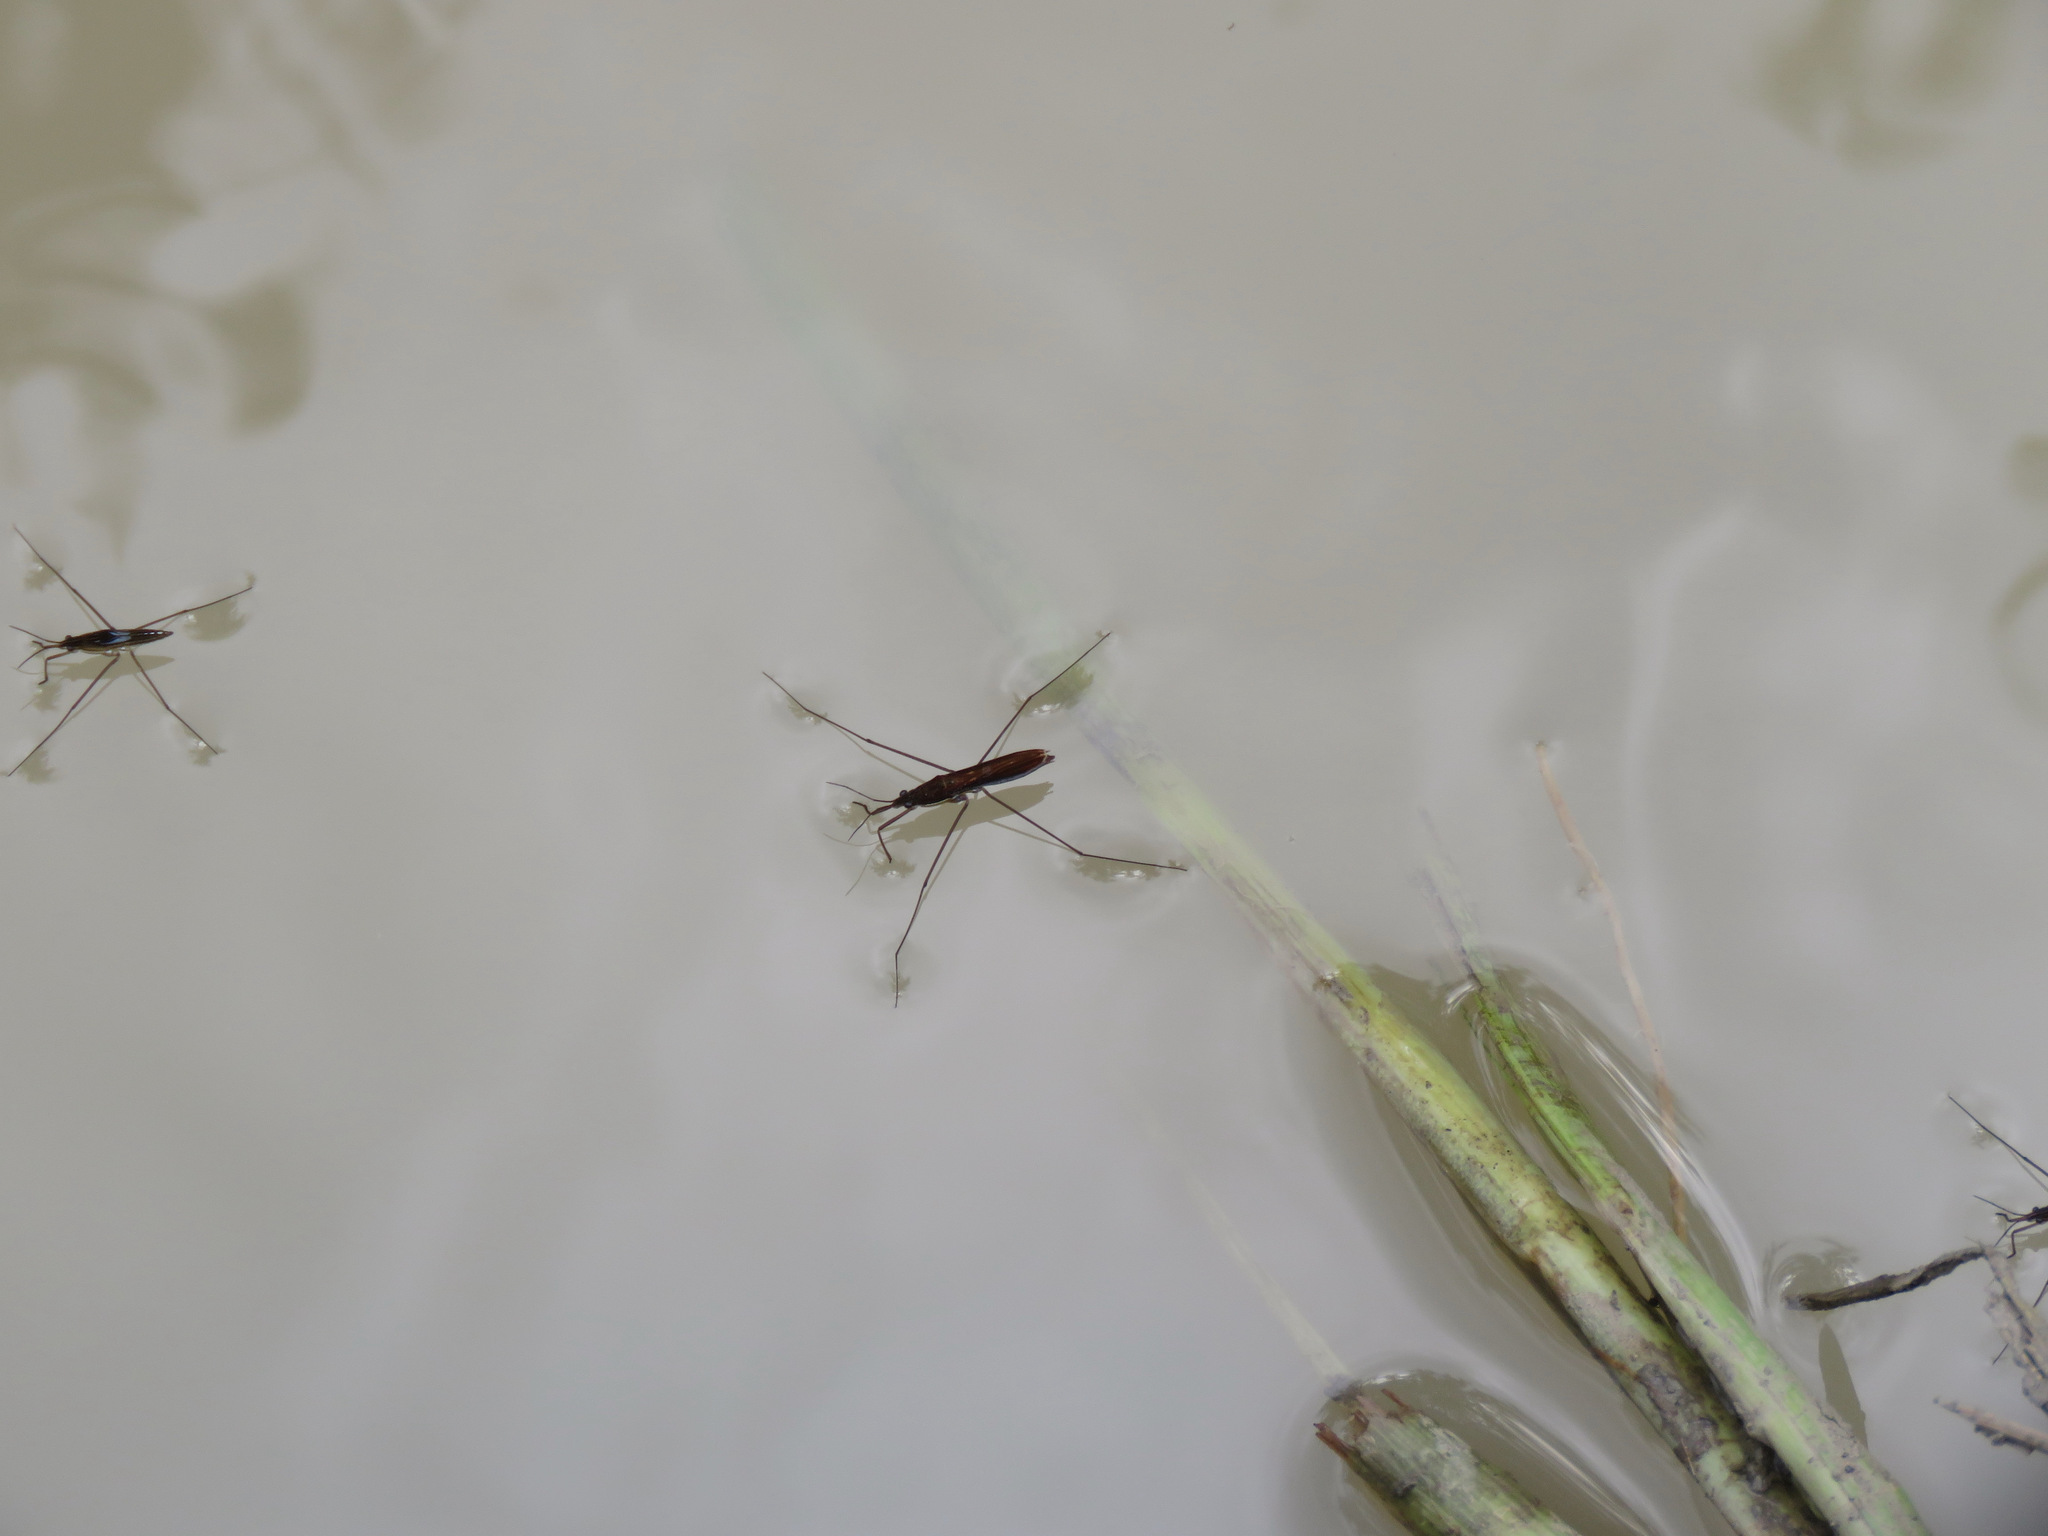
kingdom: Animalia
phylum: Arthropoda
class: Insecta
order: Hemiptera
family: Gerridae
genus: Limnoporus
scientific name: Limnoporus
